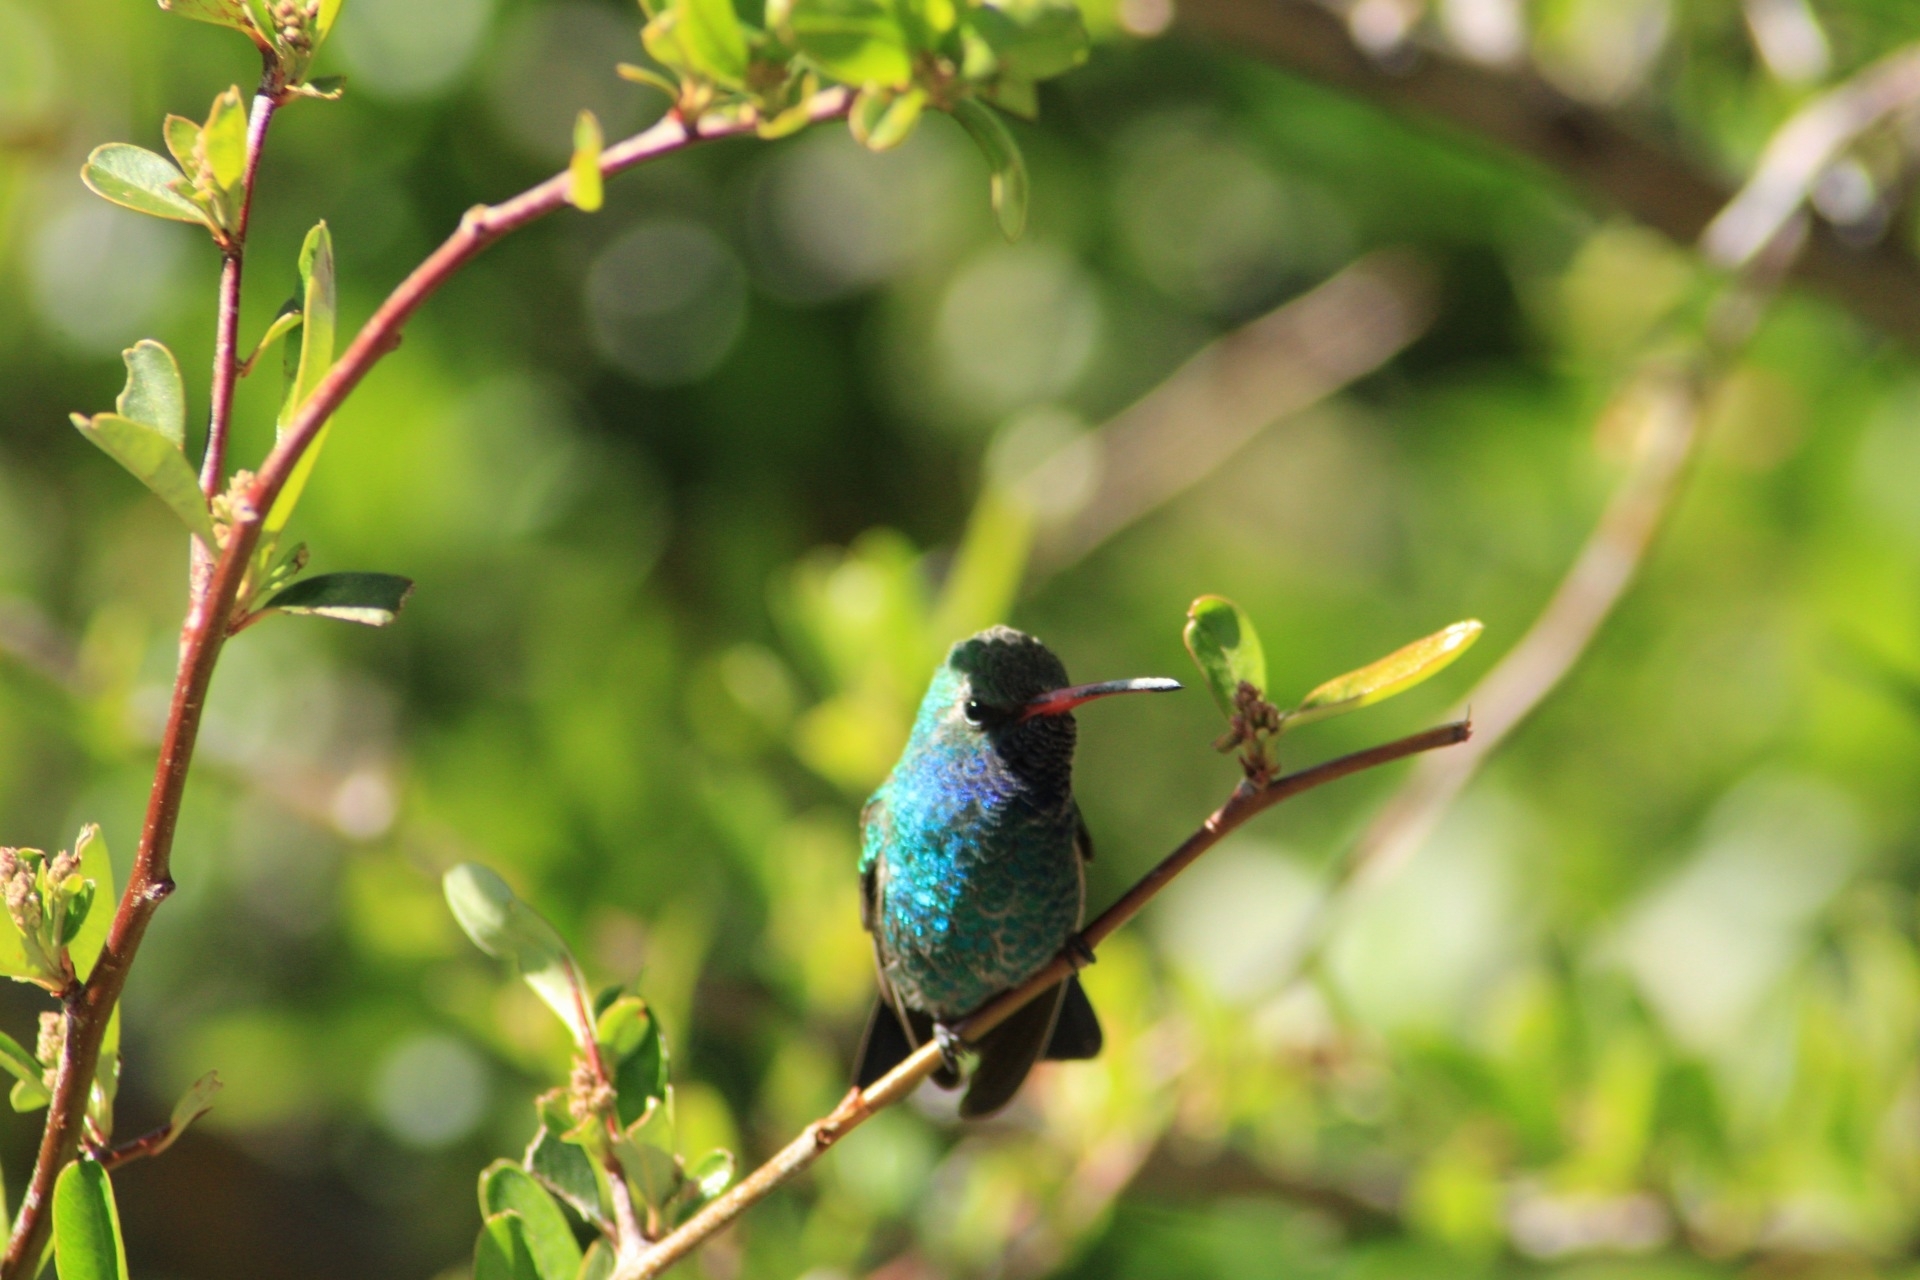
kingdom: Animalia
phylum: Chordata
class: Aves
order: Apodiformes
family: Trochilidae
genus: Cynanthus
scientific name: Cynanthus latirostris
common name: Broad-billed hummingbird
